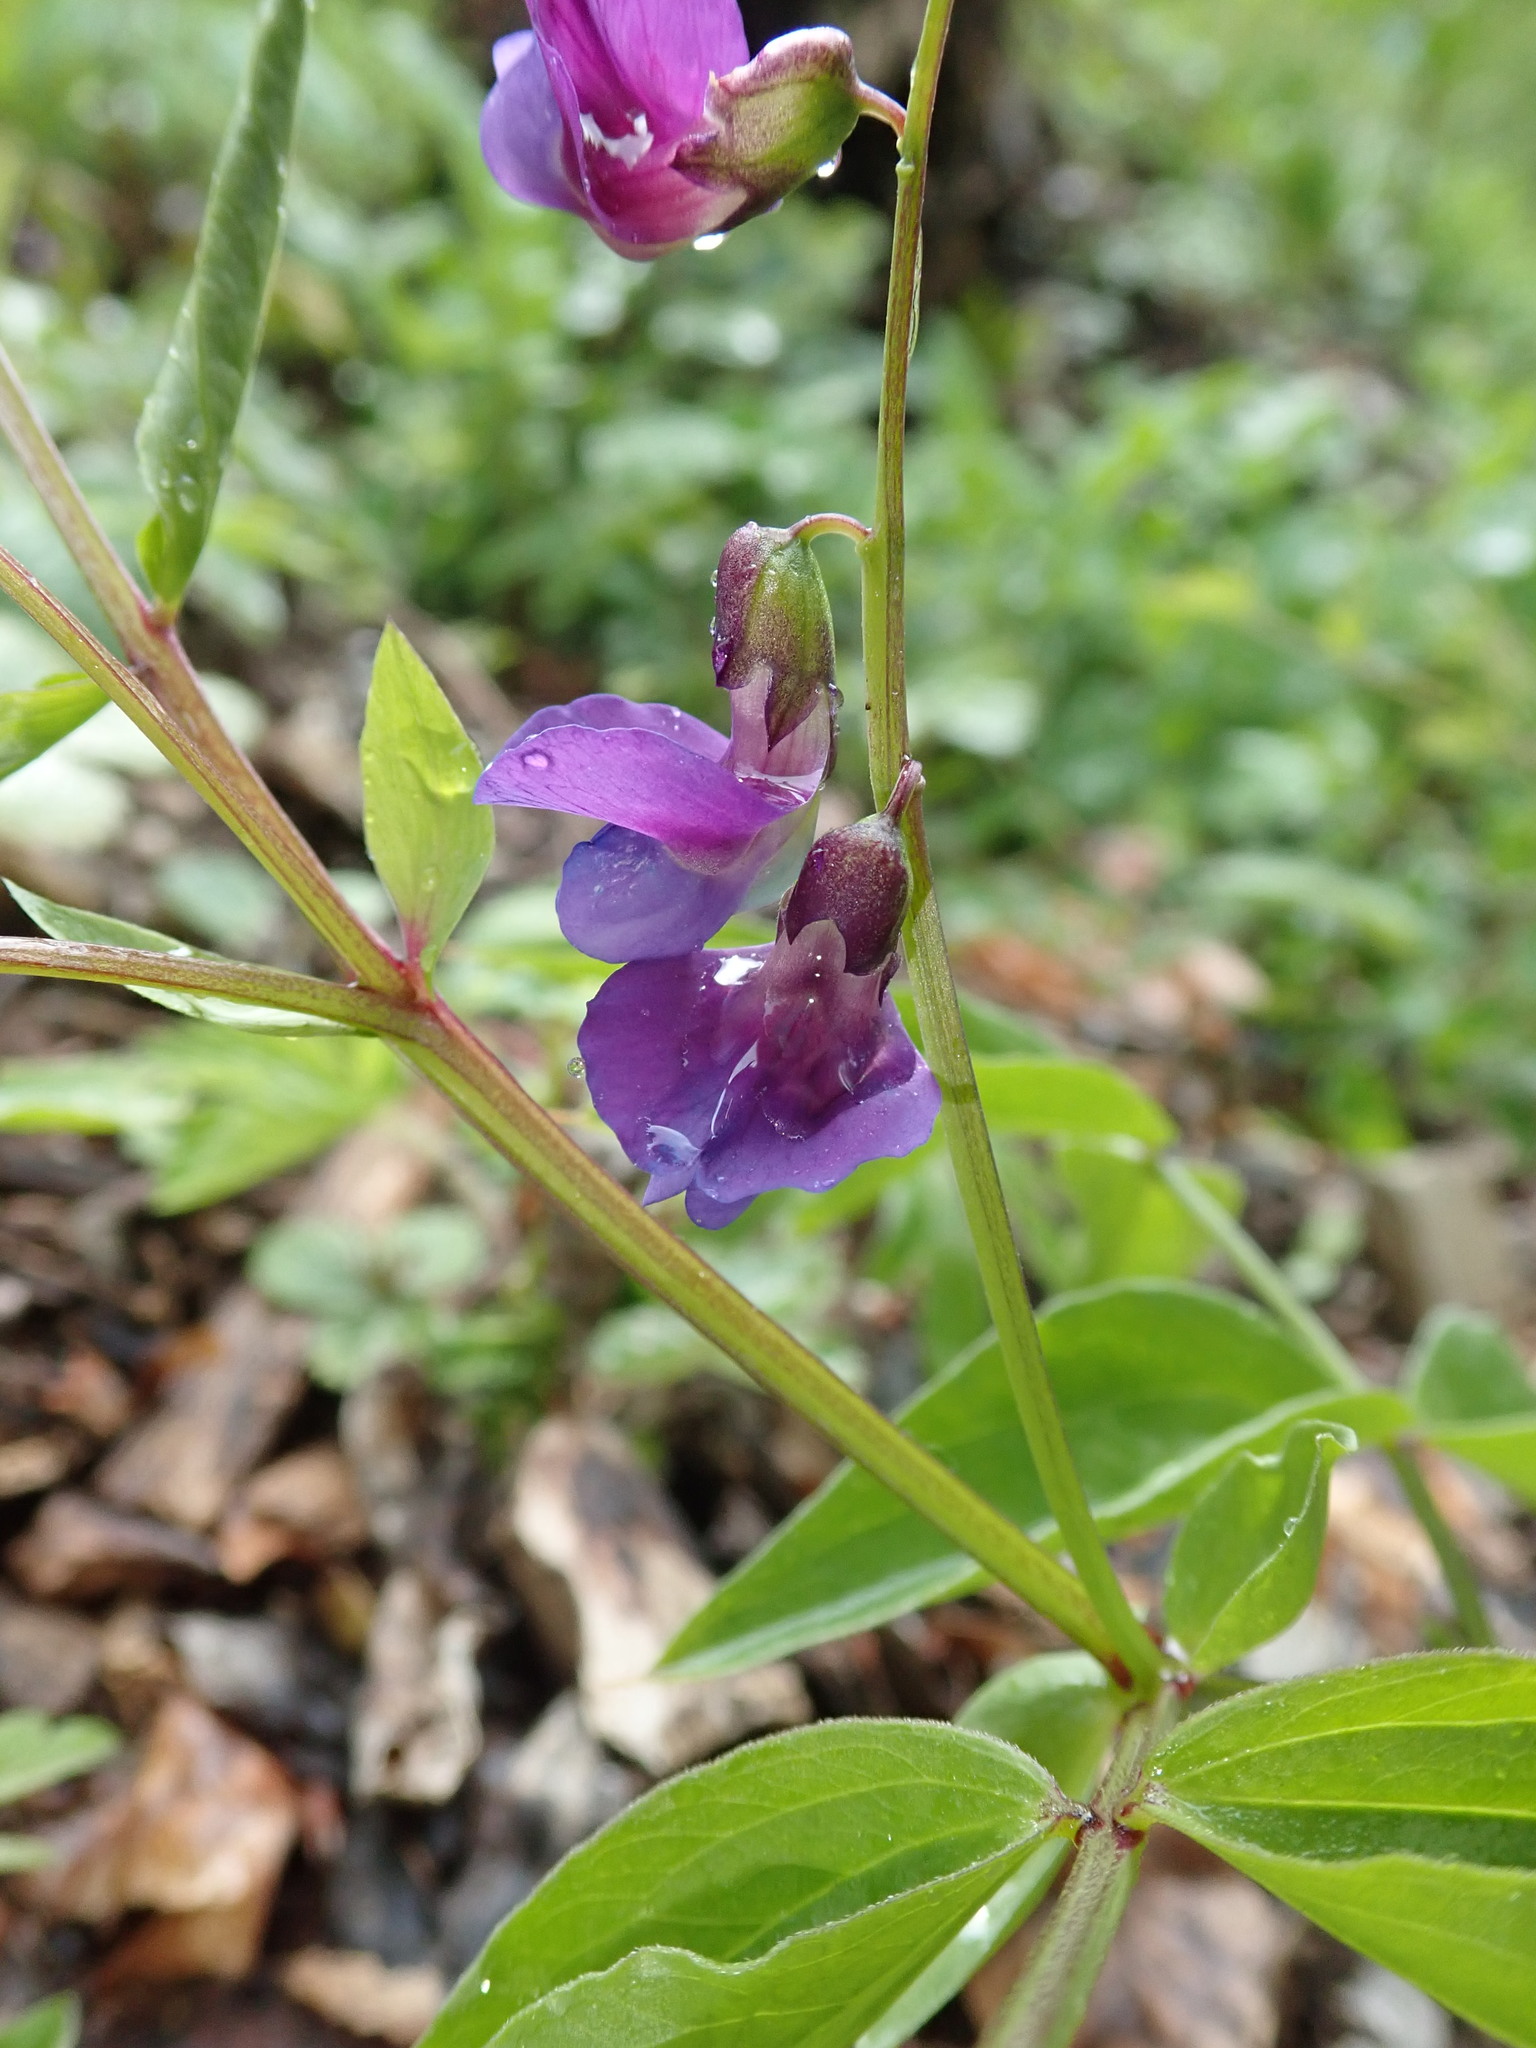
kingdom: Plantae
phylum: Tracheophyta
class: Magnoliopsida
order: Fabales
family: Fabaceae
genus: Lathyrus
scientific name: Lathyrus vernus
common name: Spring pea
